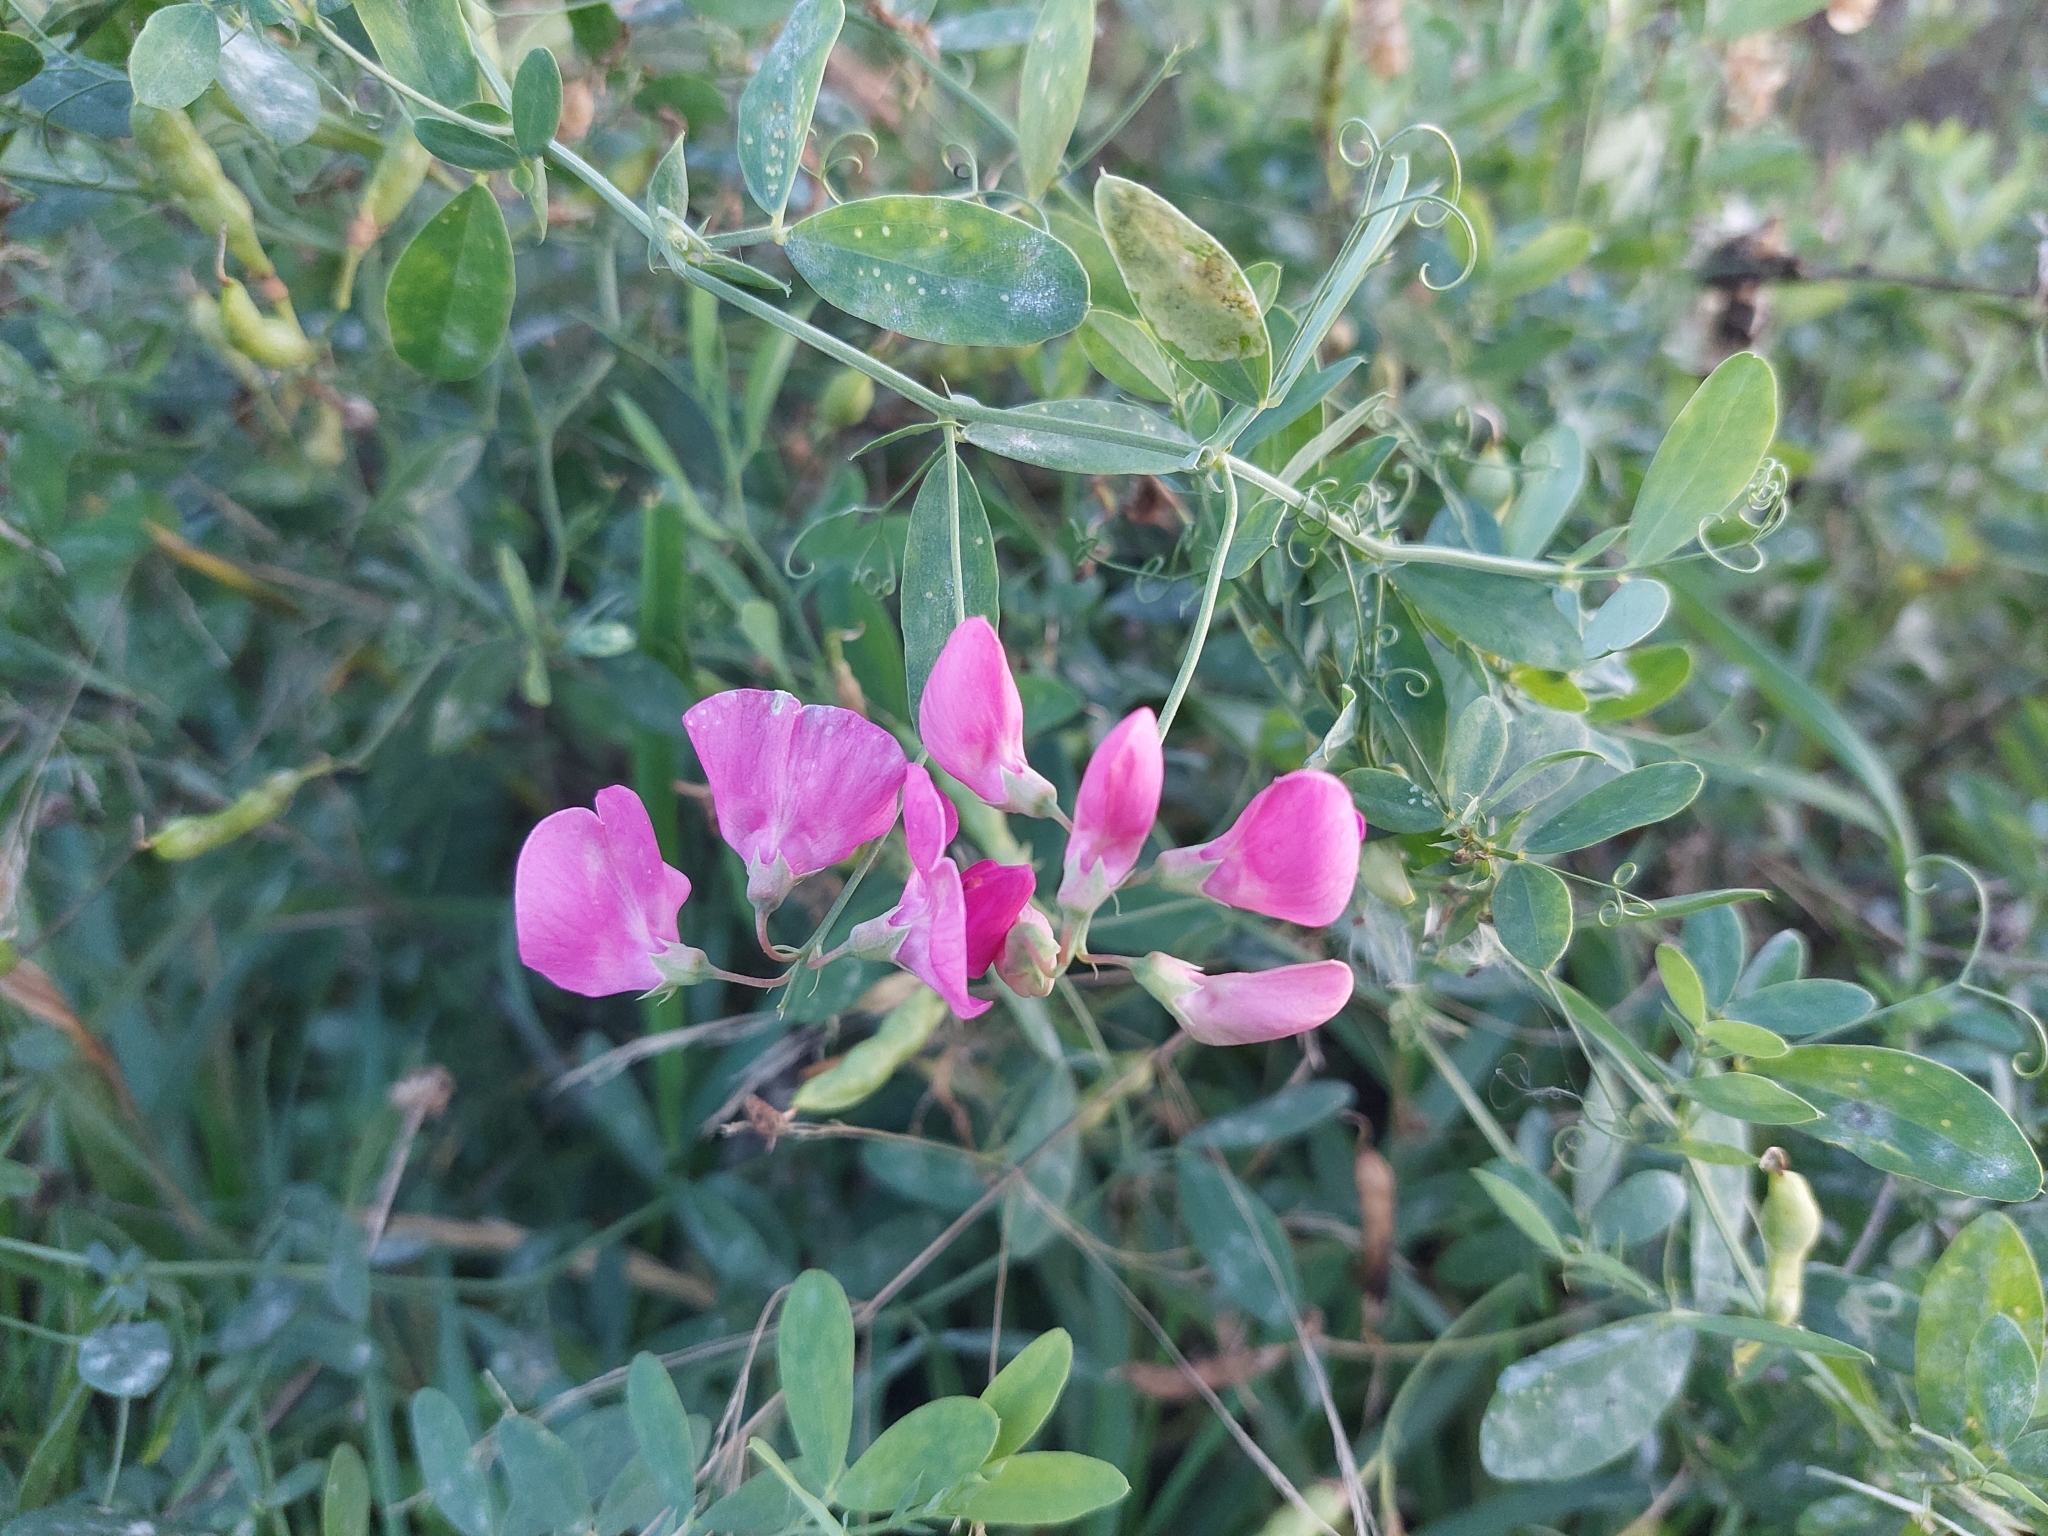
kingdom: Plantae
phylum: Tracheophyta
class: Magnoliopsida
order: Fabales
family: Fabaceae
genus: Lathyrus
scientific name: Lathyrus tuberosus
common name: Tuberous pea
